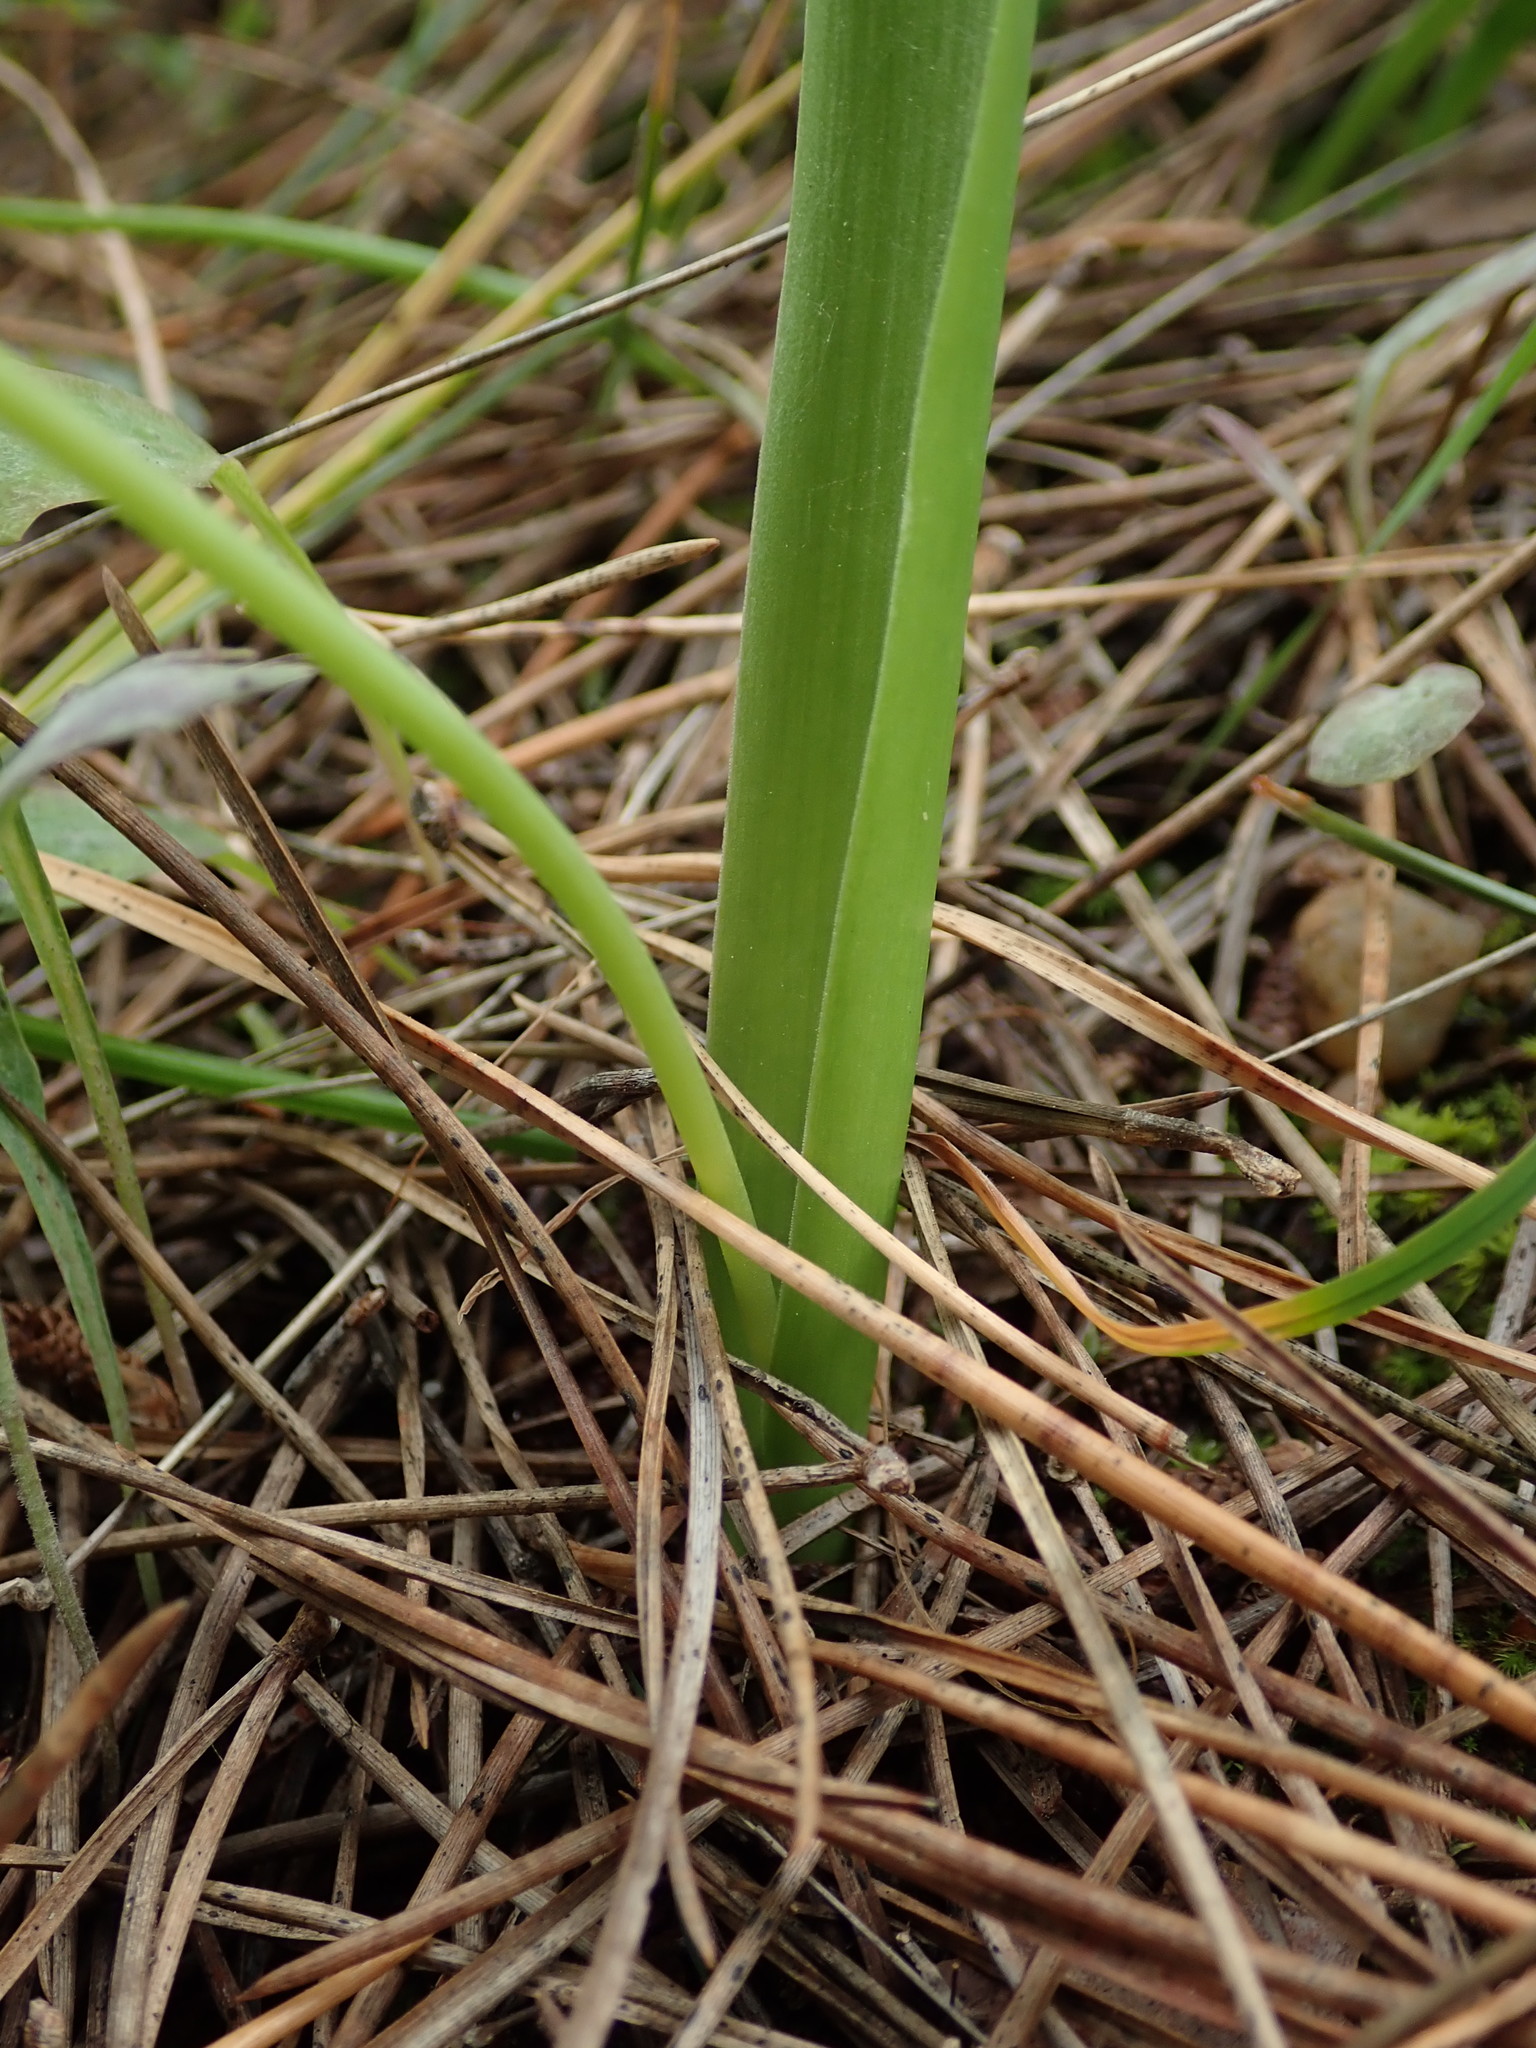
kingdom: Plantae
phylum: Tracheophyta
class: Liliopsida
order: Asparagales
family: Asparagaceae
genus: Scilla
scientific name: Scilla monophyllos
